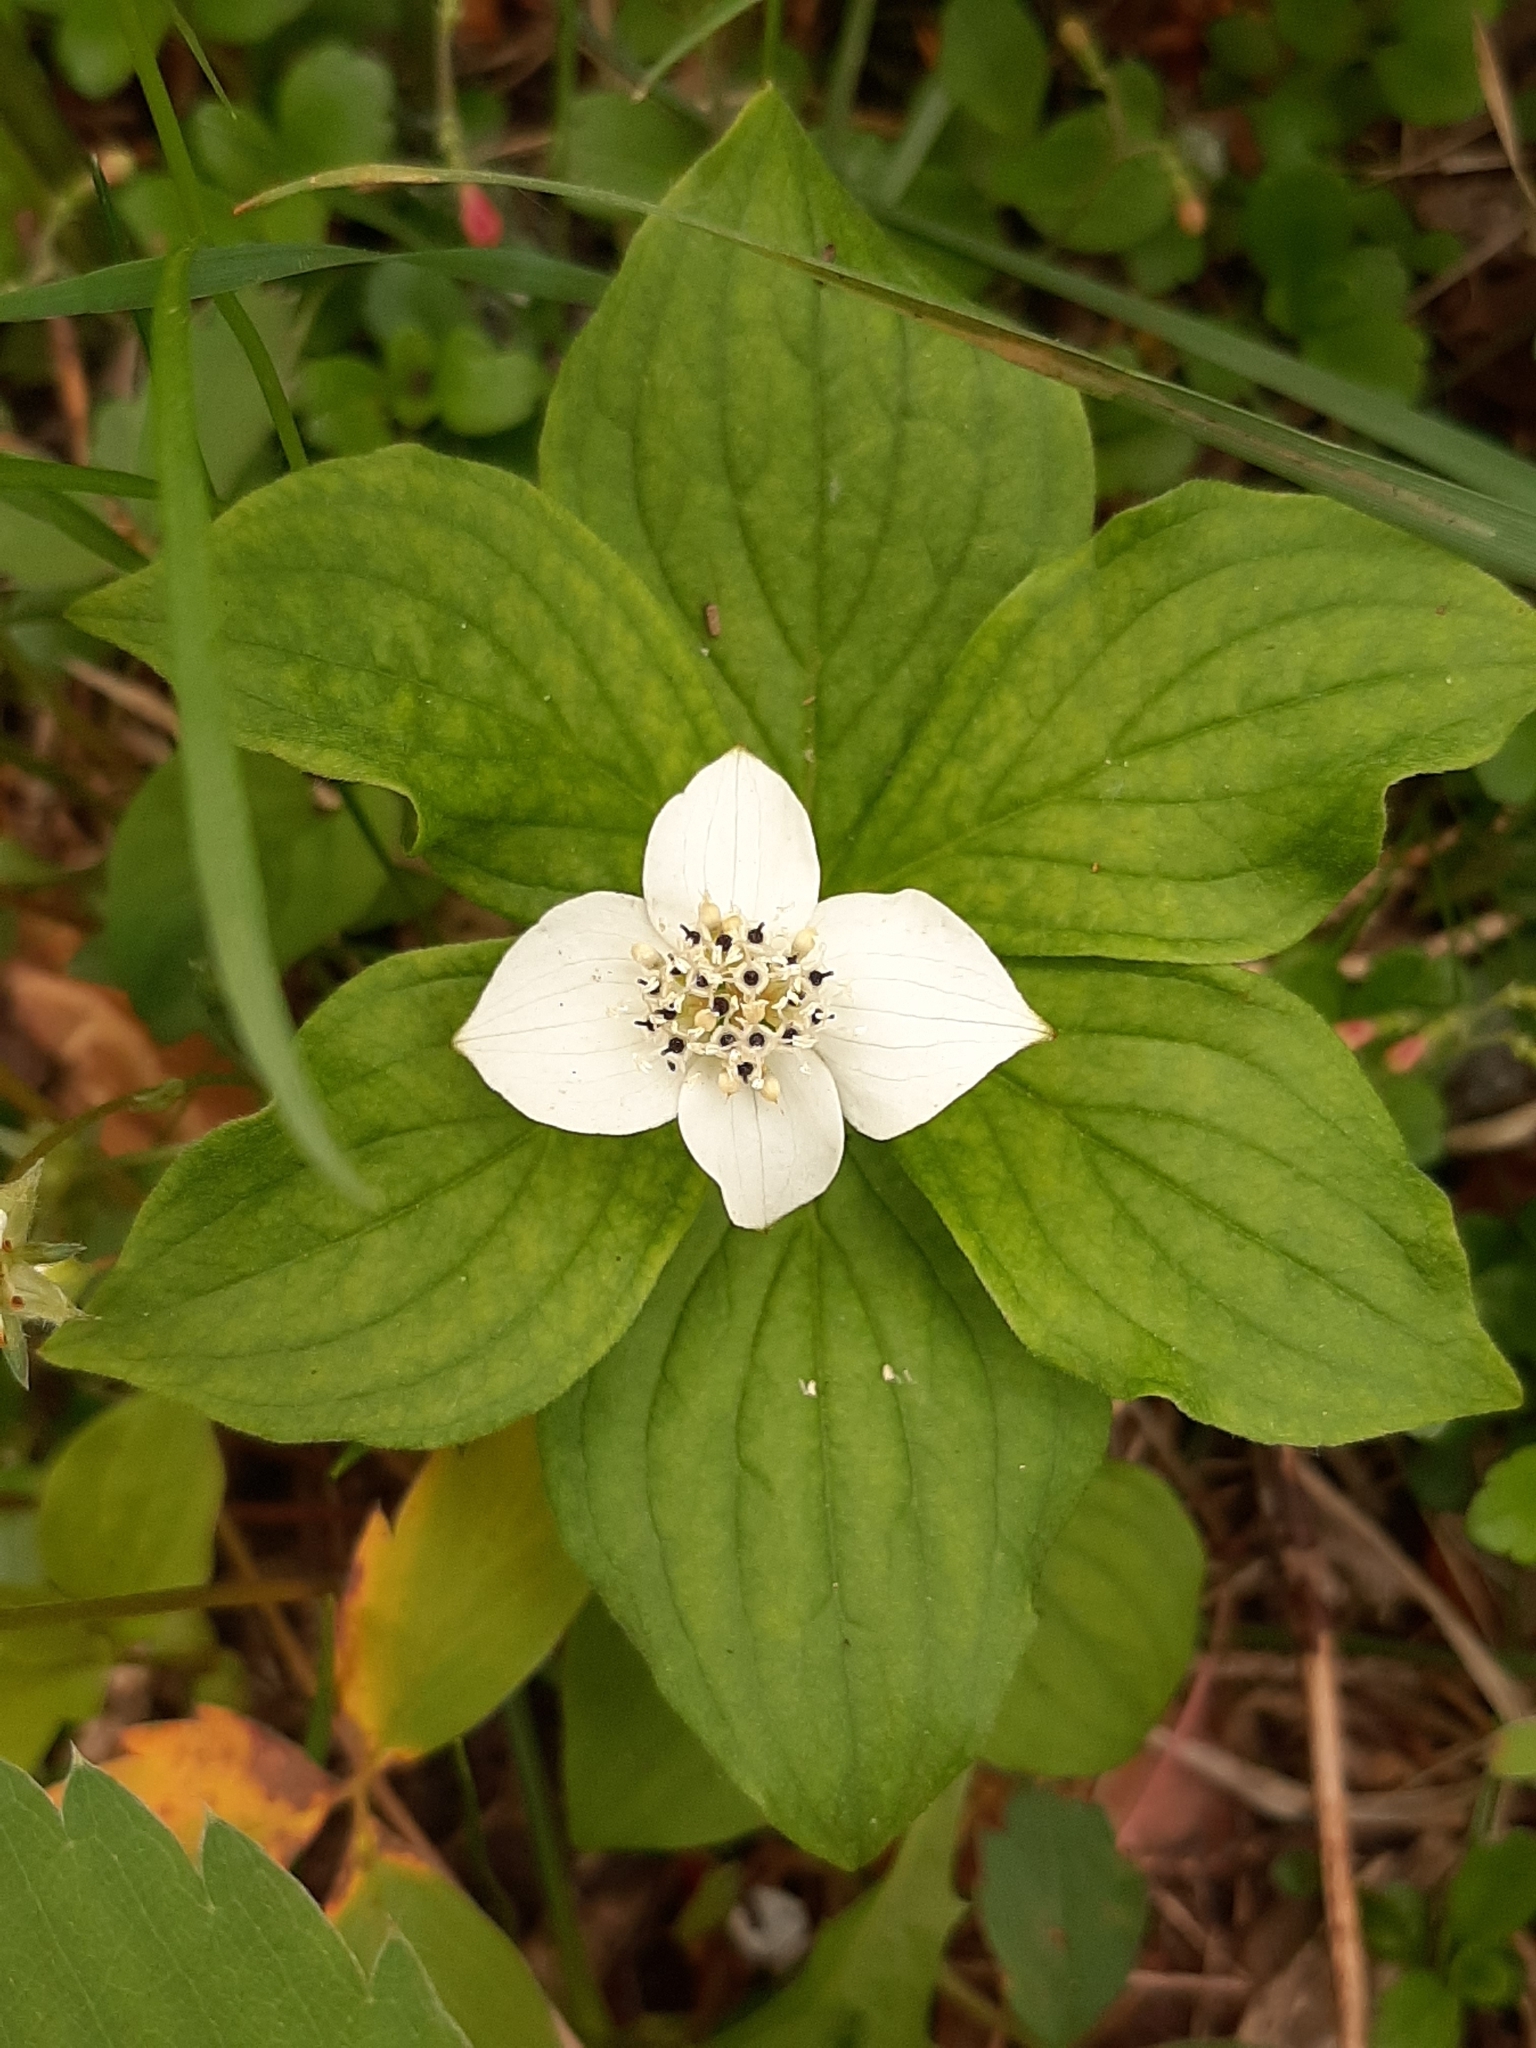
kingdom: Plantae
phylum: Tracheophyta
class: Magnoliopsida
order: Cornales
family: Cornaceae
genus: Cornus
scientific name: Cornus canadensis
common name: Creeping dogwood
